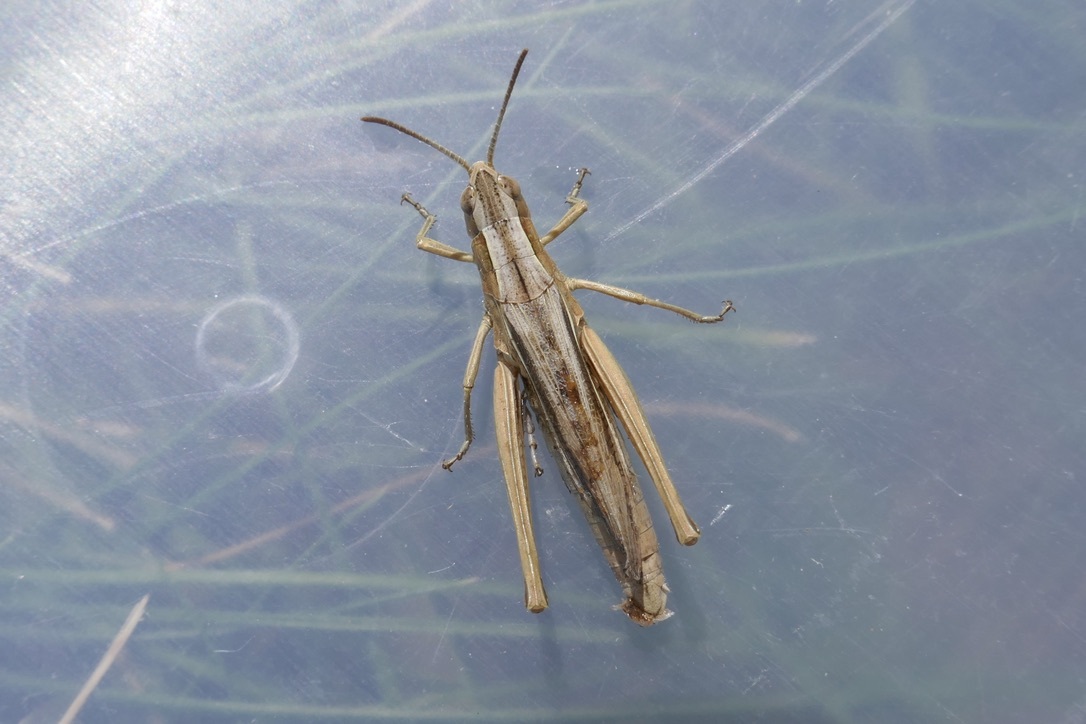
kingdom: Animalia
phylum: Arthropoda
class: Insecta
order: Orthoptera
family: Acrididae
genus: Chorthippus
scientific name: Chorthippus oschei
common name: Carpathian dancing grasshopper
